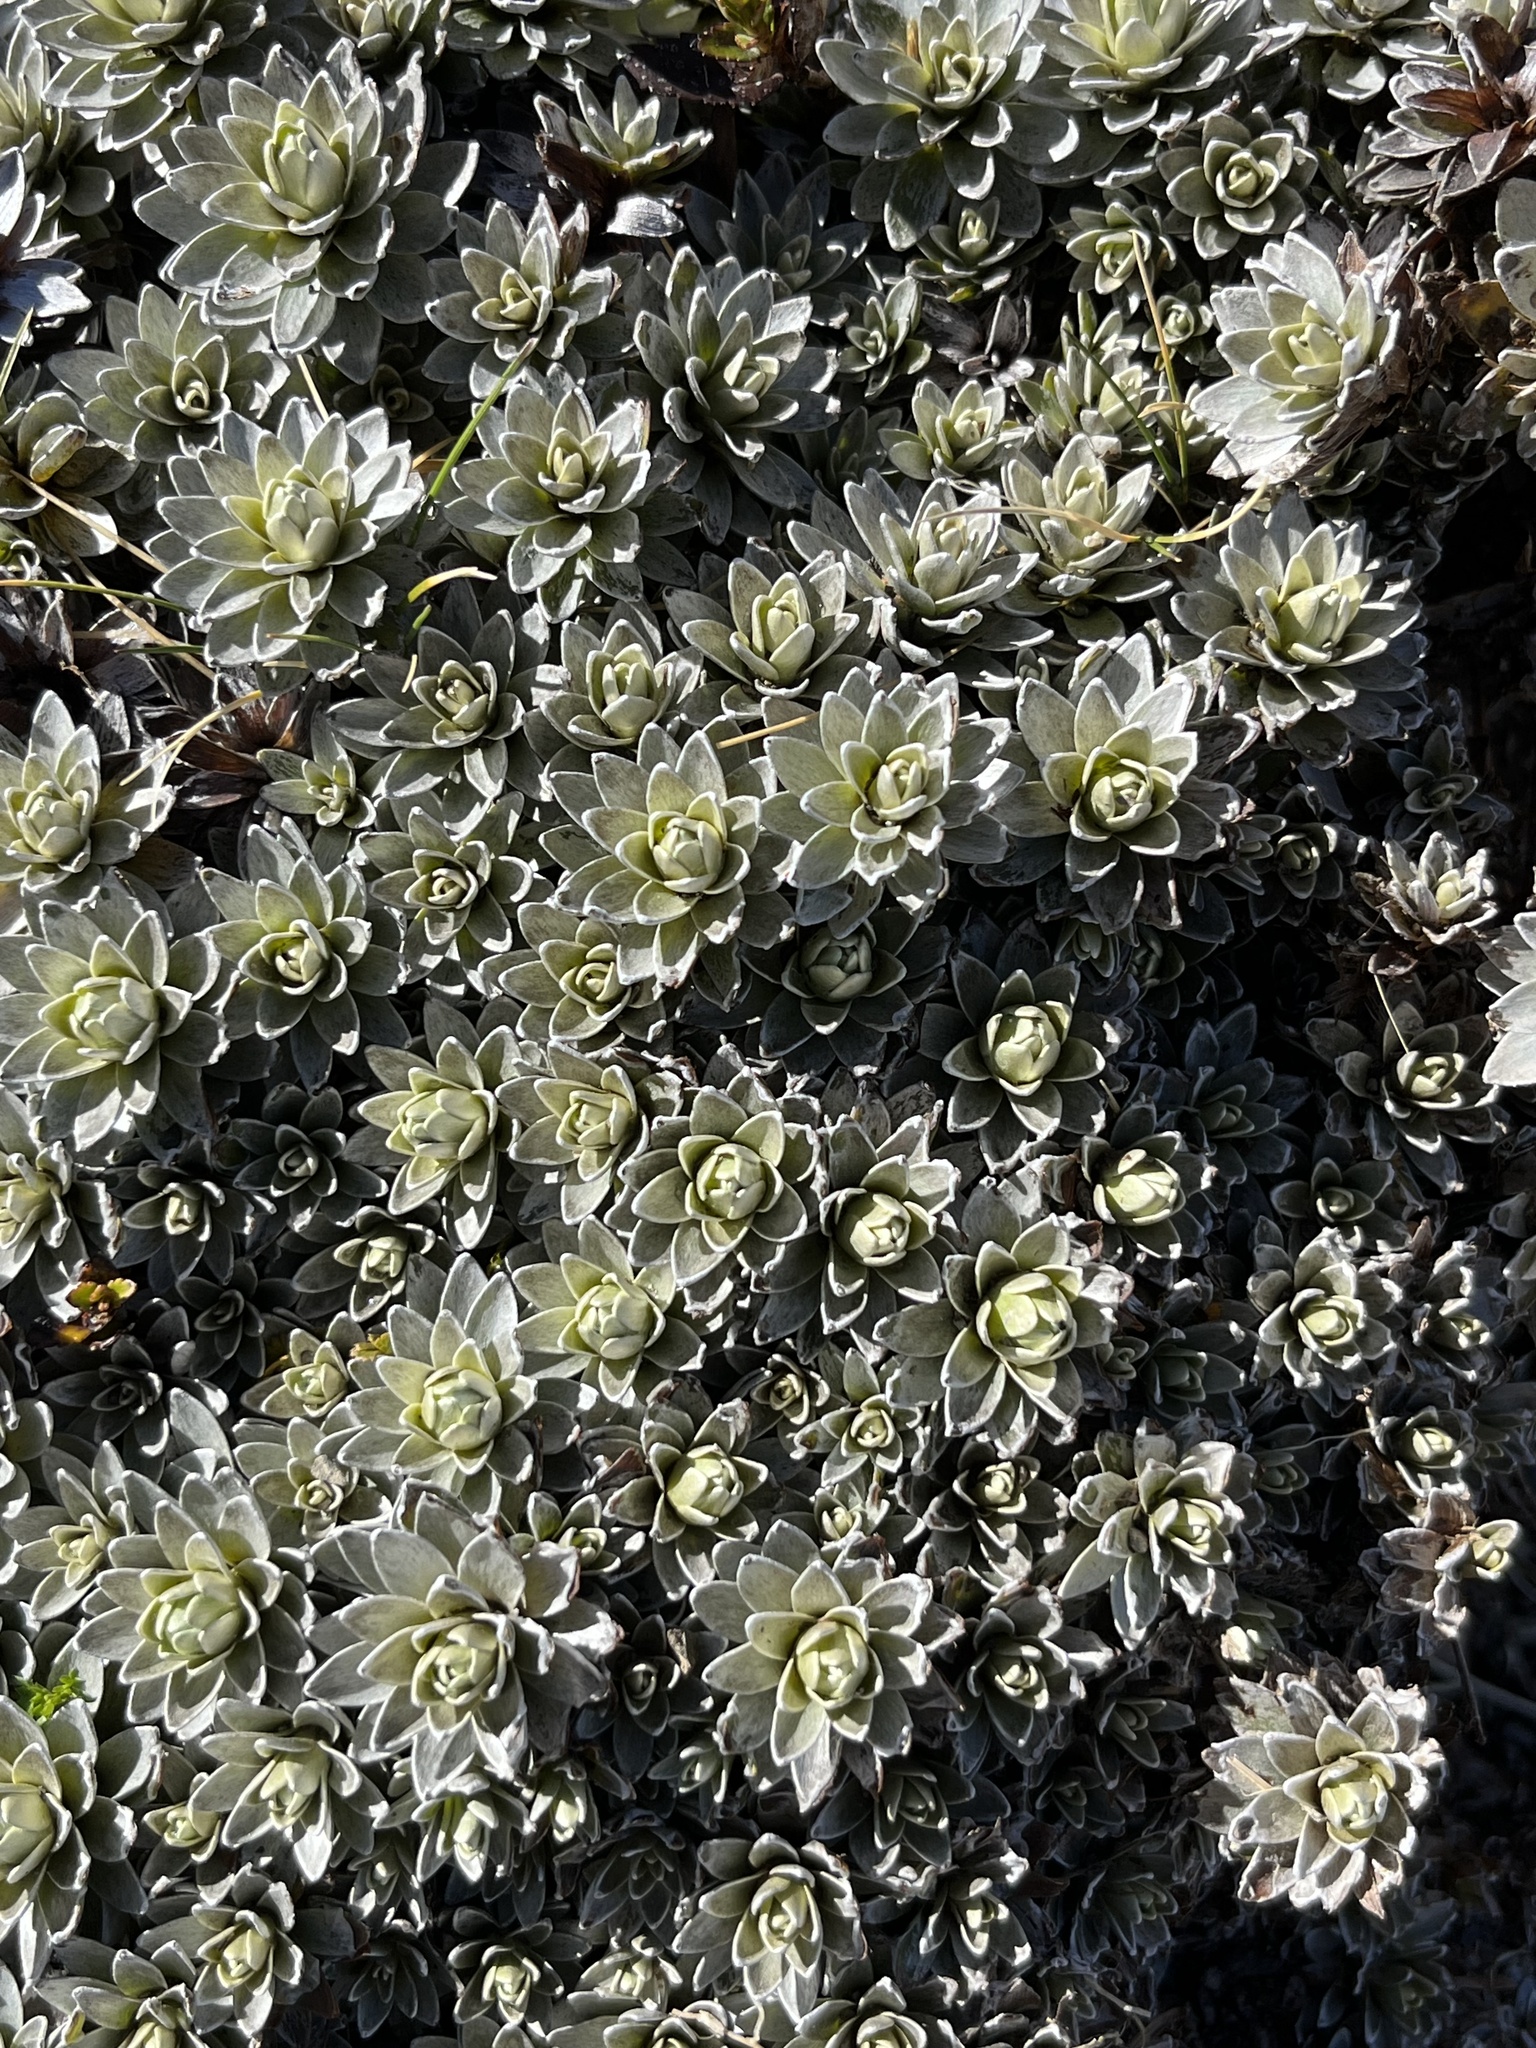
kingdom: Plantae
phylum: Tracheophyta
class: Magnoliopsida
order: Asterales
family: Asteraceae
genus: Leucogenes
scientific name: Leucogenes leontopodium
